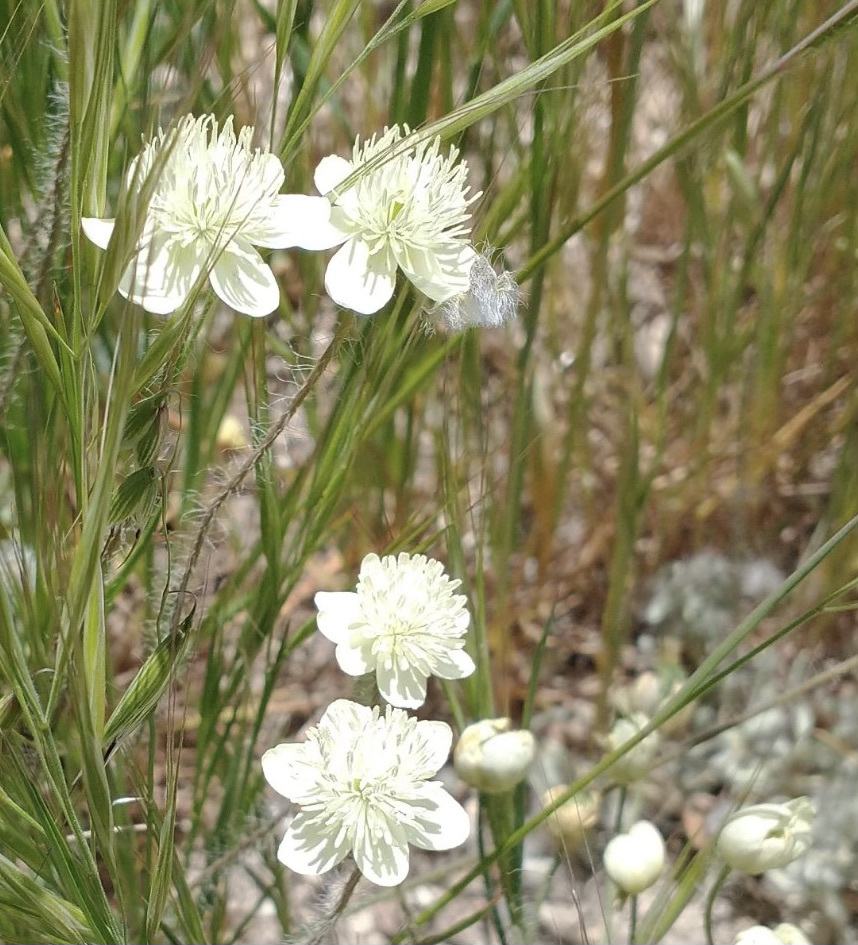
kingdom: Plantae
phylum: Tracheophyta
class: Magnoliopsida
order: Ranunculales
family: Papaveraceae
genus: Platystemon
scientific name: Platystemon californicus
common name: Cream-cups
